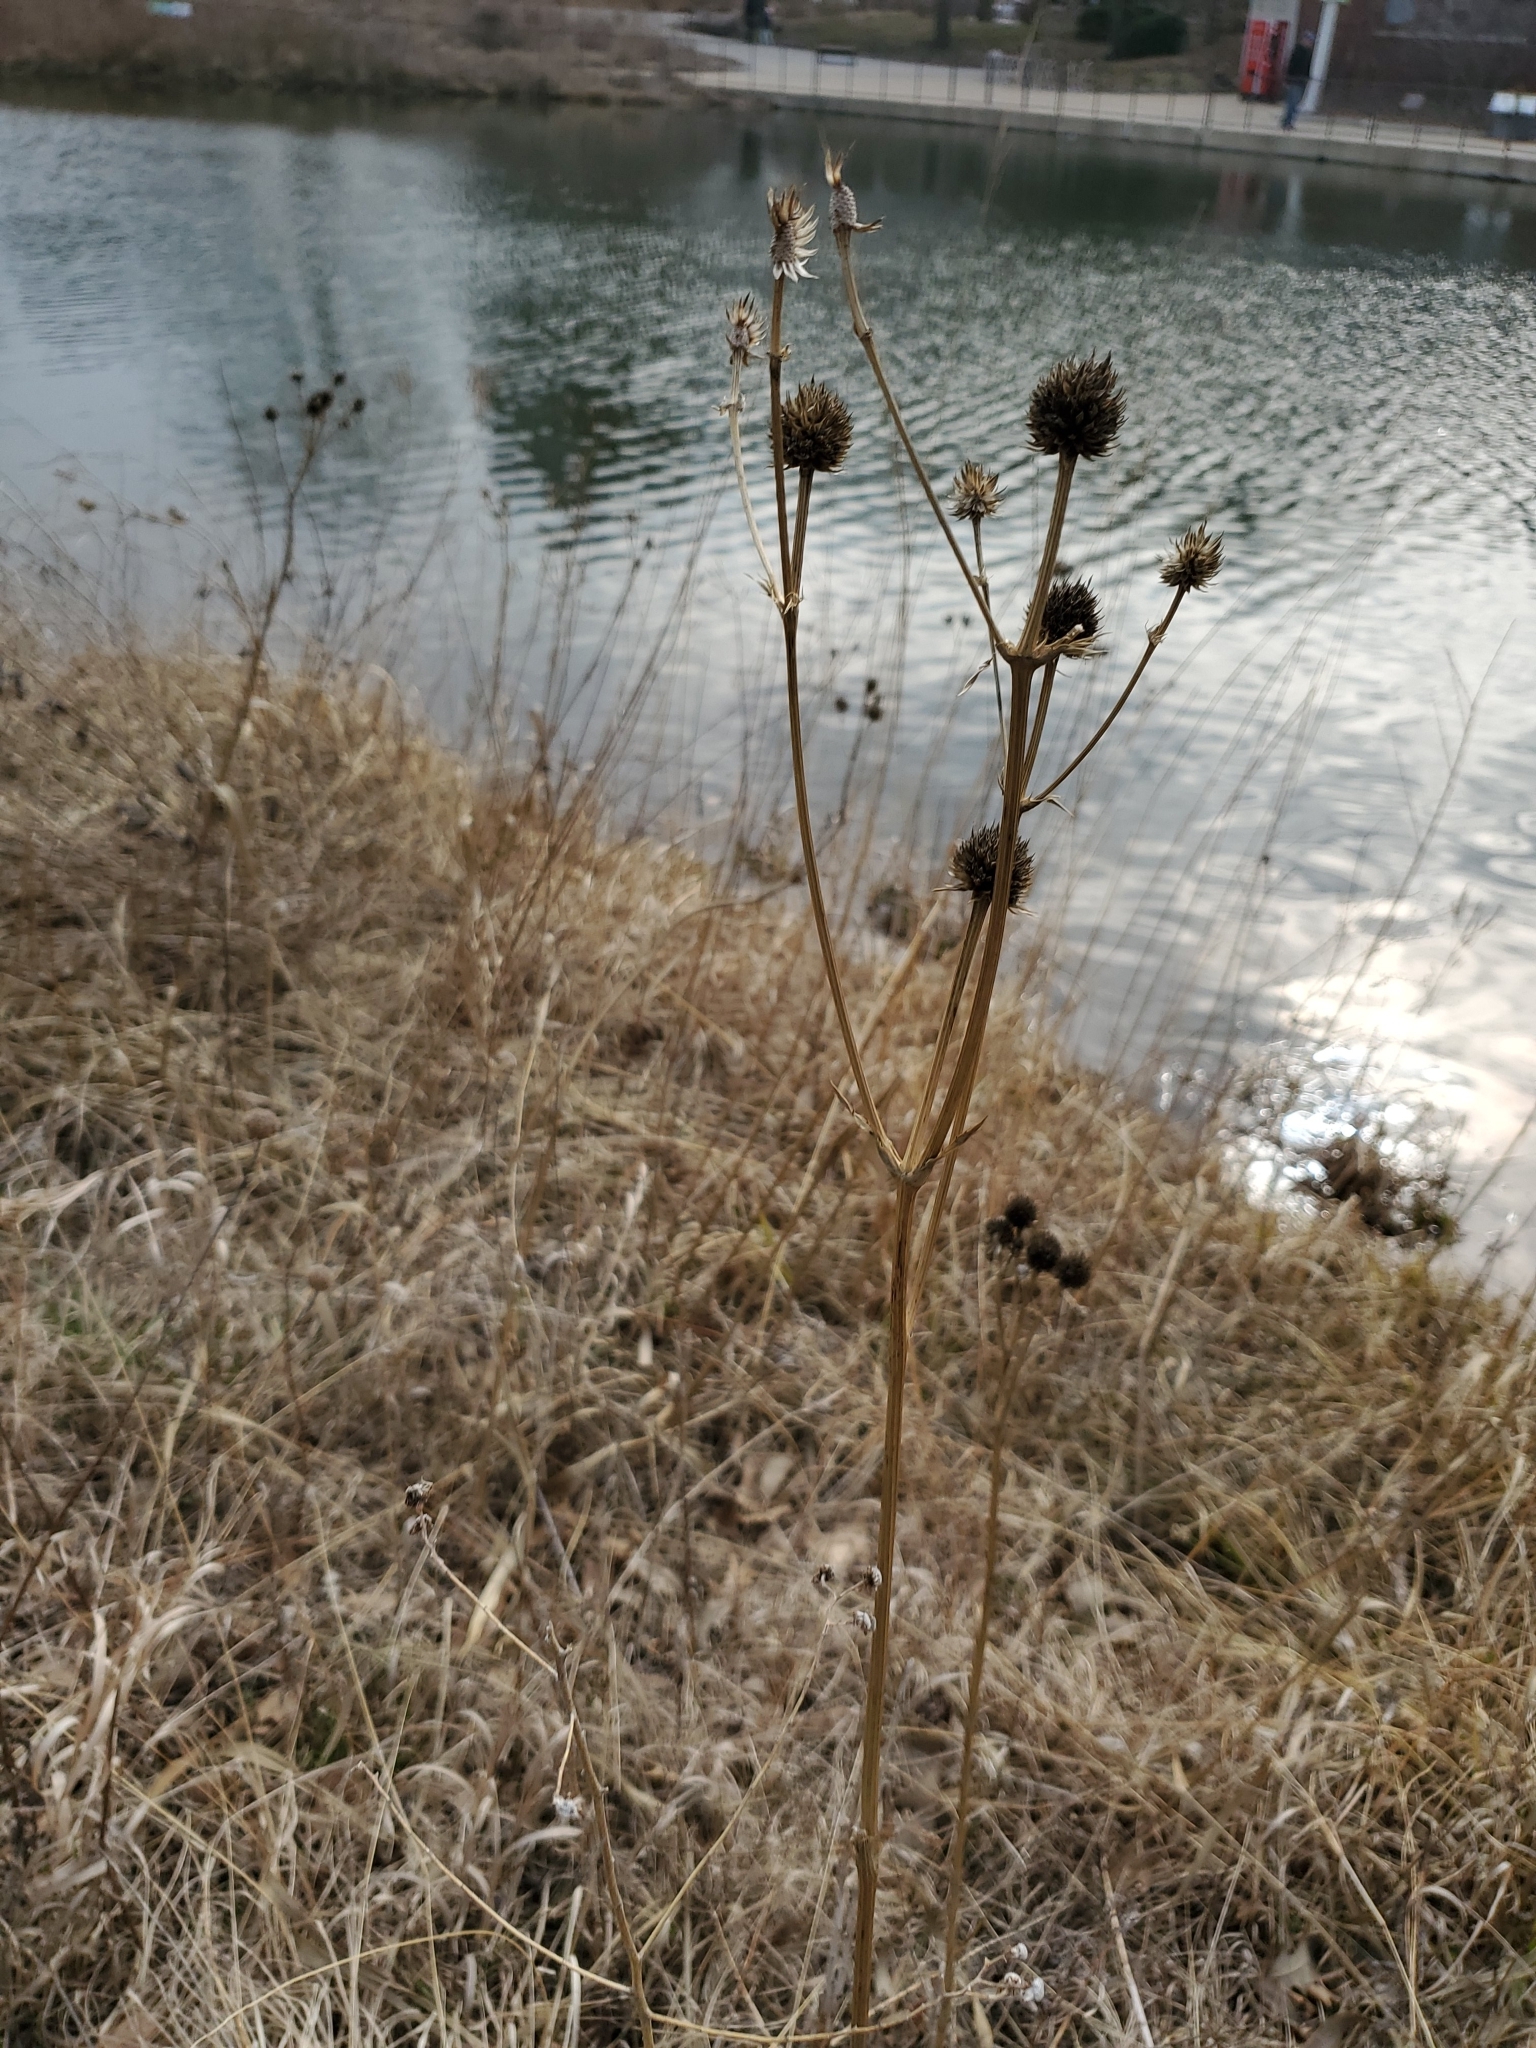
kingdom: Plantae
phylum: Tracheophyta
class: Magnoliopsida
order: Fabales
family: Fabaceae
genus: Lespedeza
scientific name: Lespedeza capitata
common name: Dusty clover
